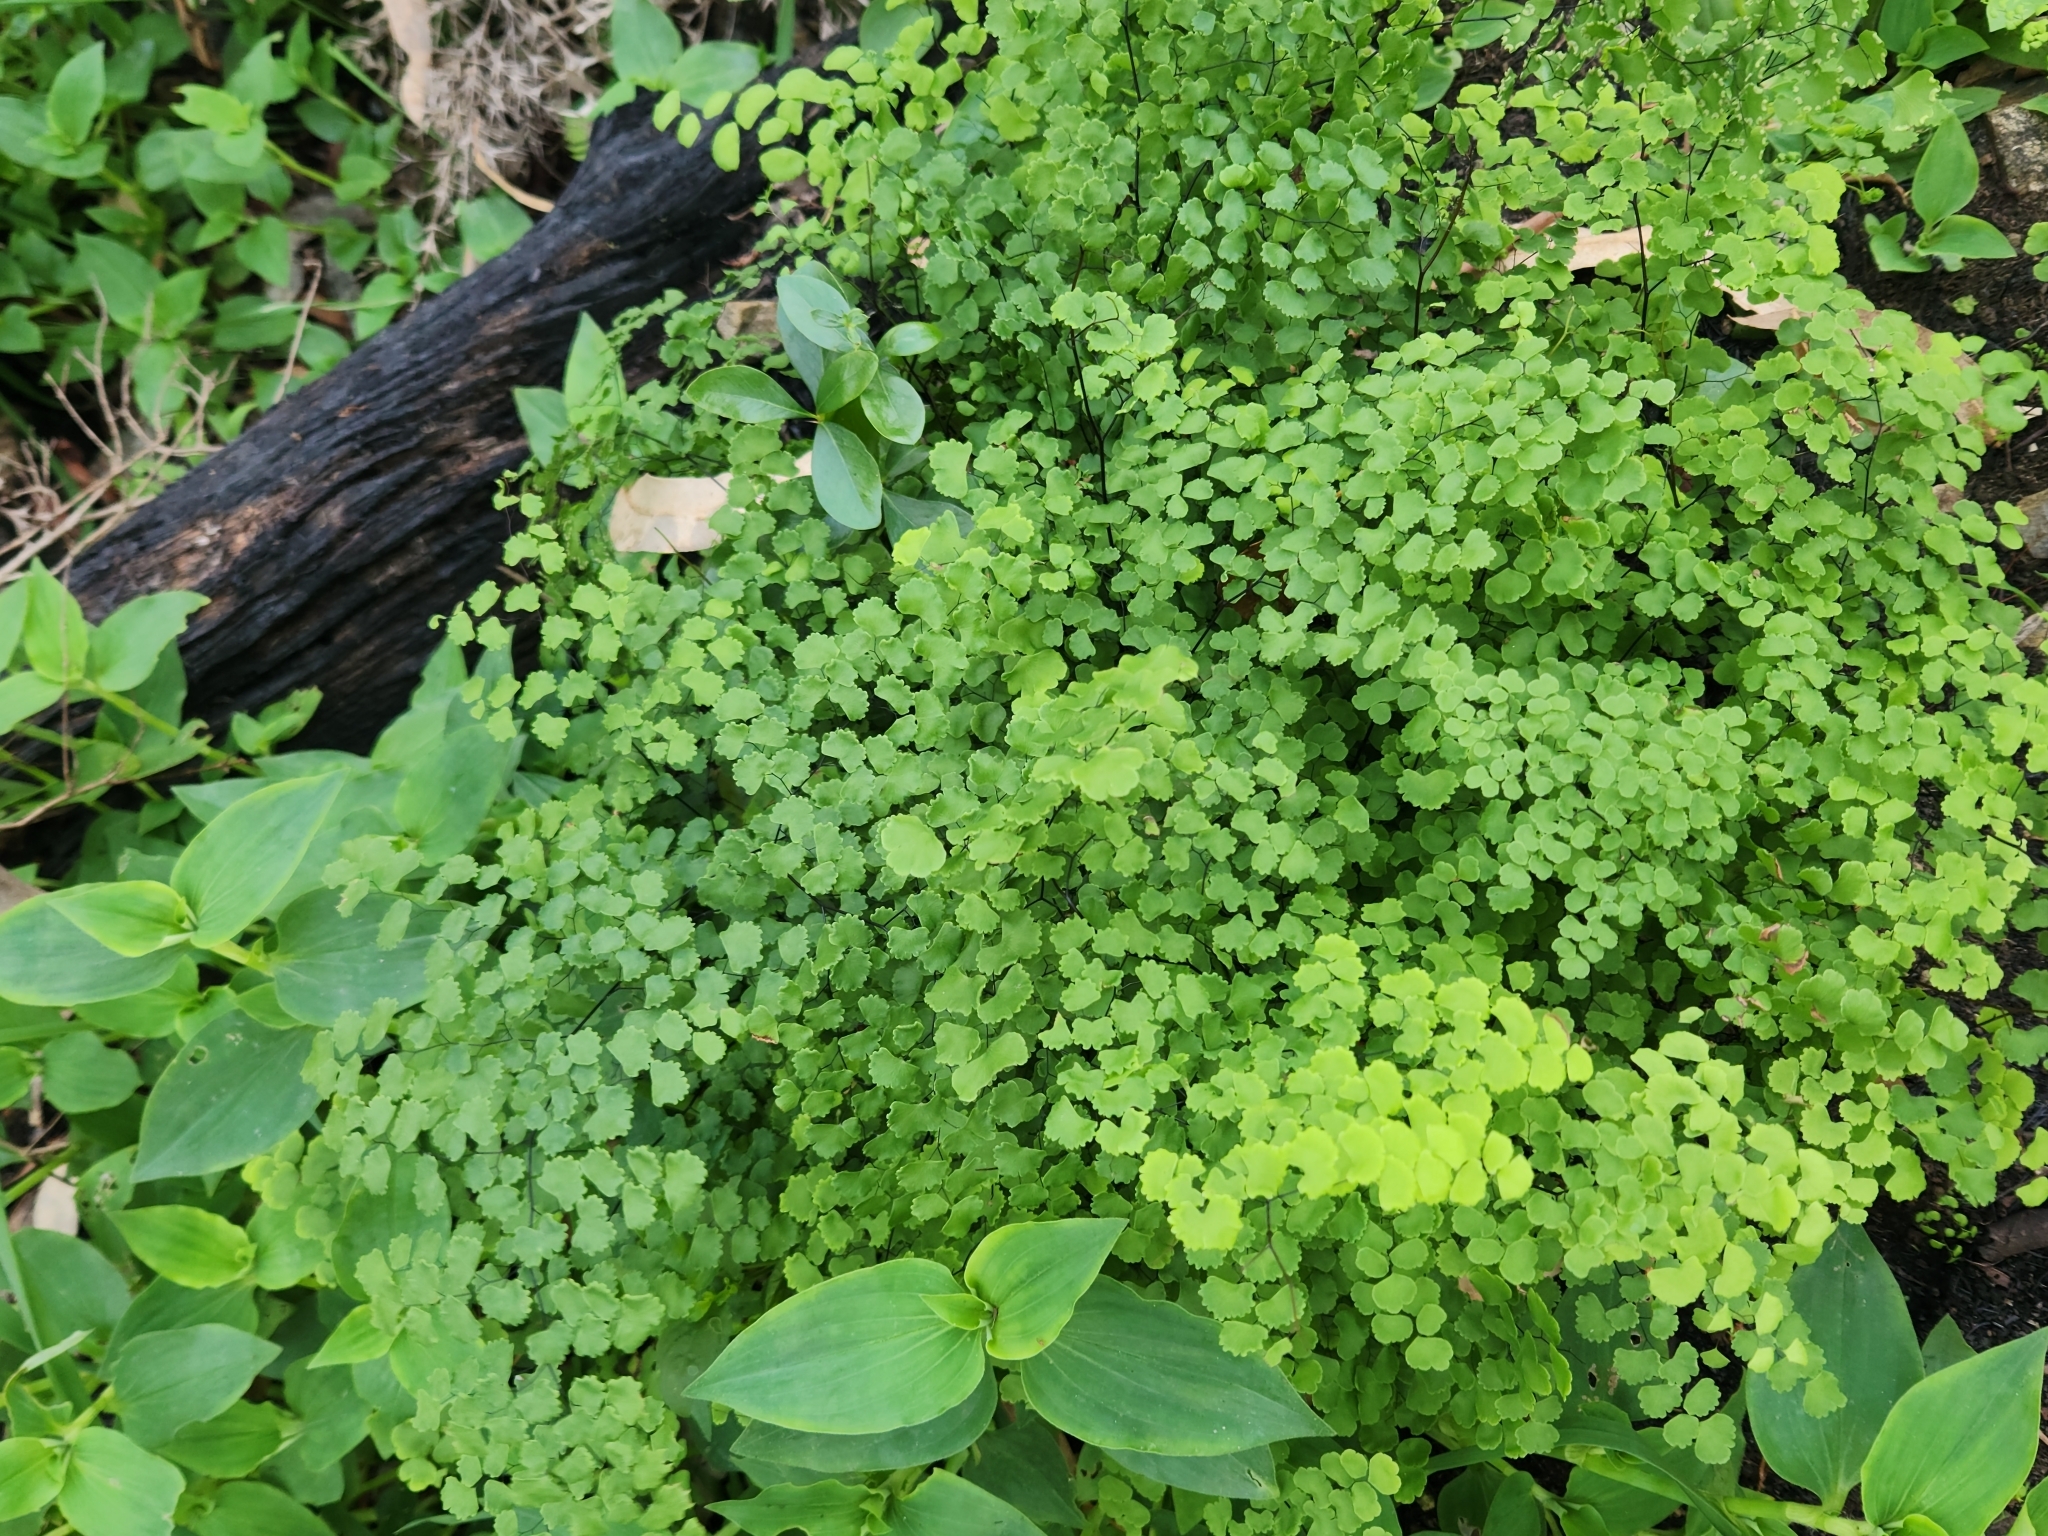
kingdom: Plantae
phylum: Tracheophyta
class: Polypodiopsida
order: Polypodiales
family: Pteridaceae
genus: Adiantum
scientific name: Adiantum poiretii
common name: Mexican maidenhair
